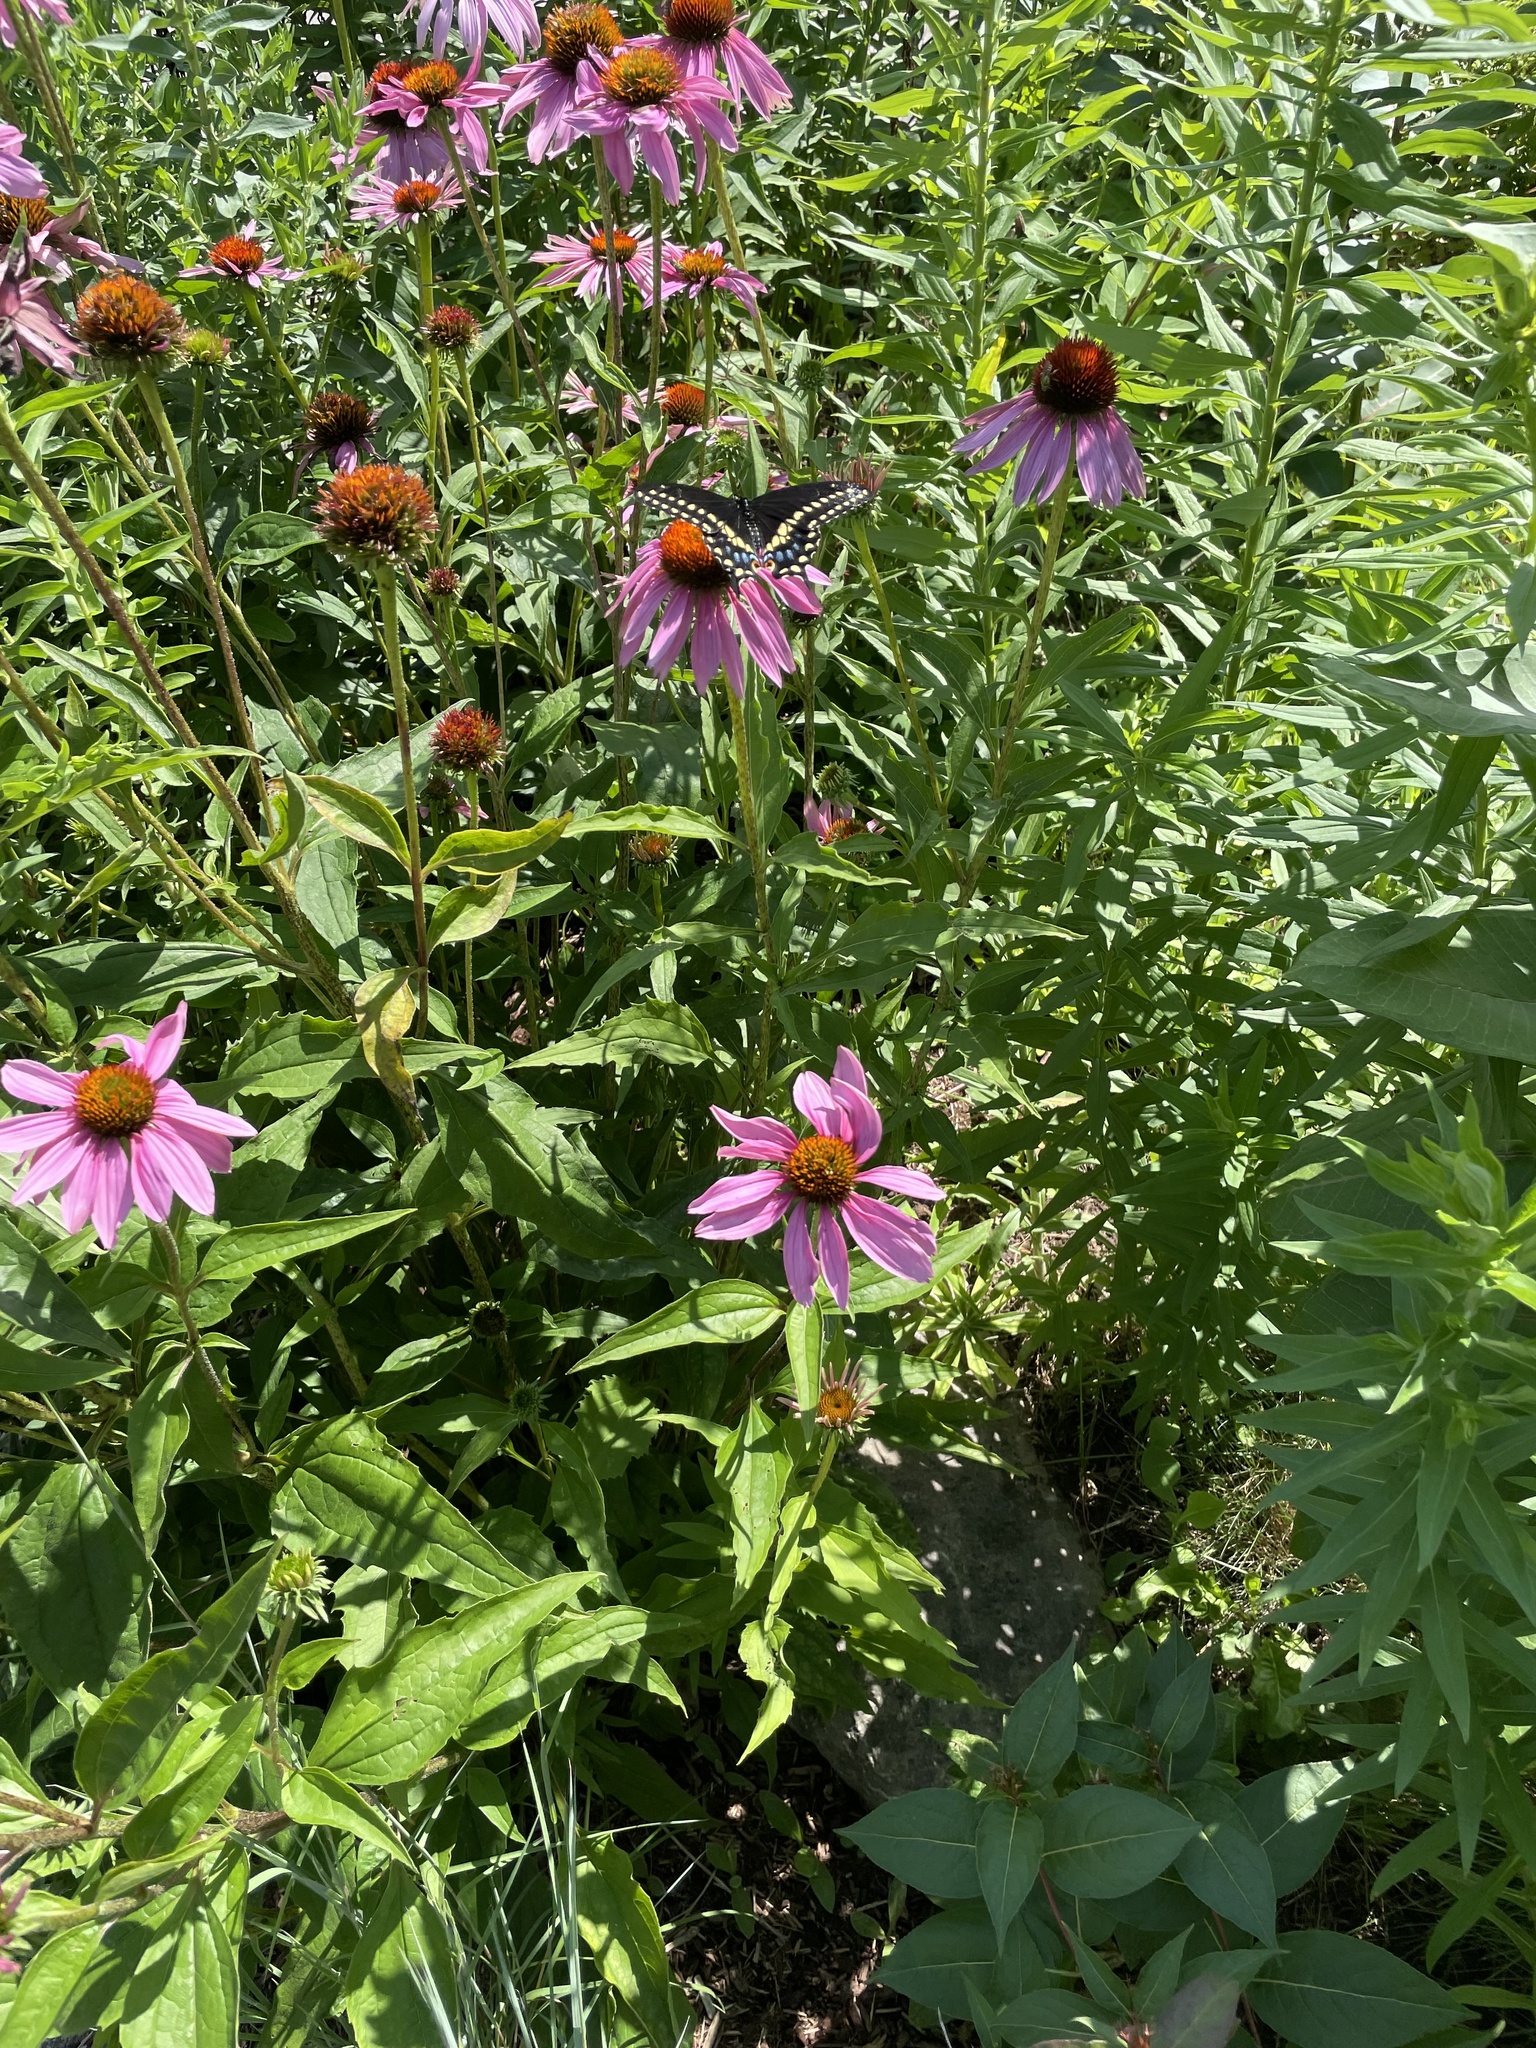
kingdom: Animalia
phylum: Arthropoda
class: Insecta
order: Lepidoptera
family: Papilionidae
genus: Papilio
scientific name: Papilio polyxenes
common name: Black swallowtail
